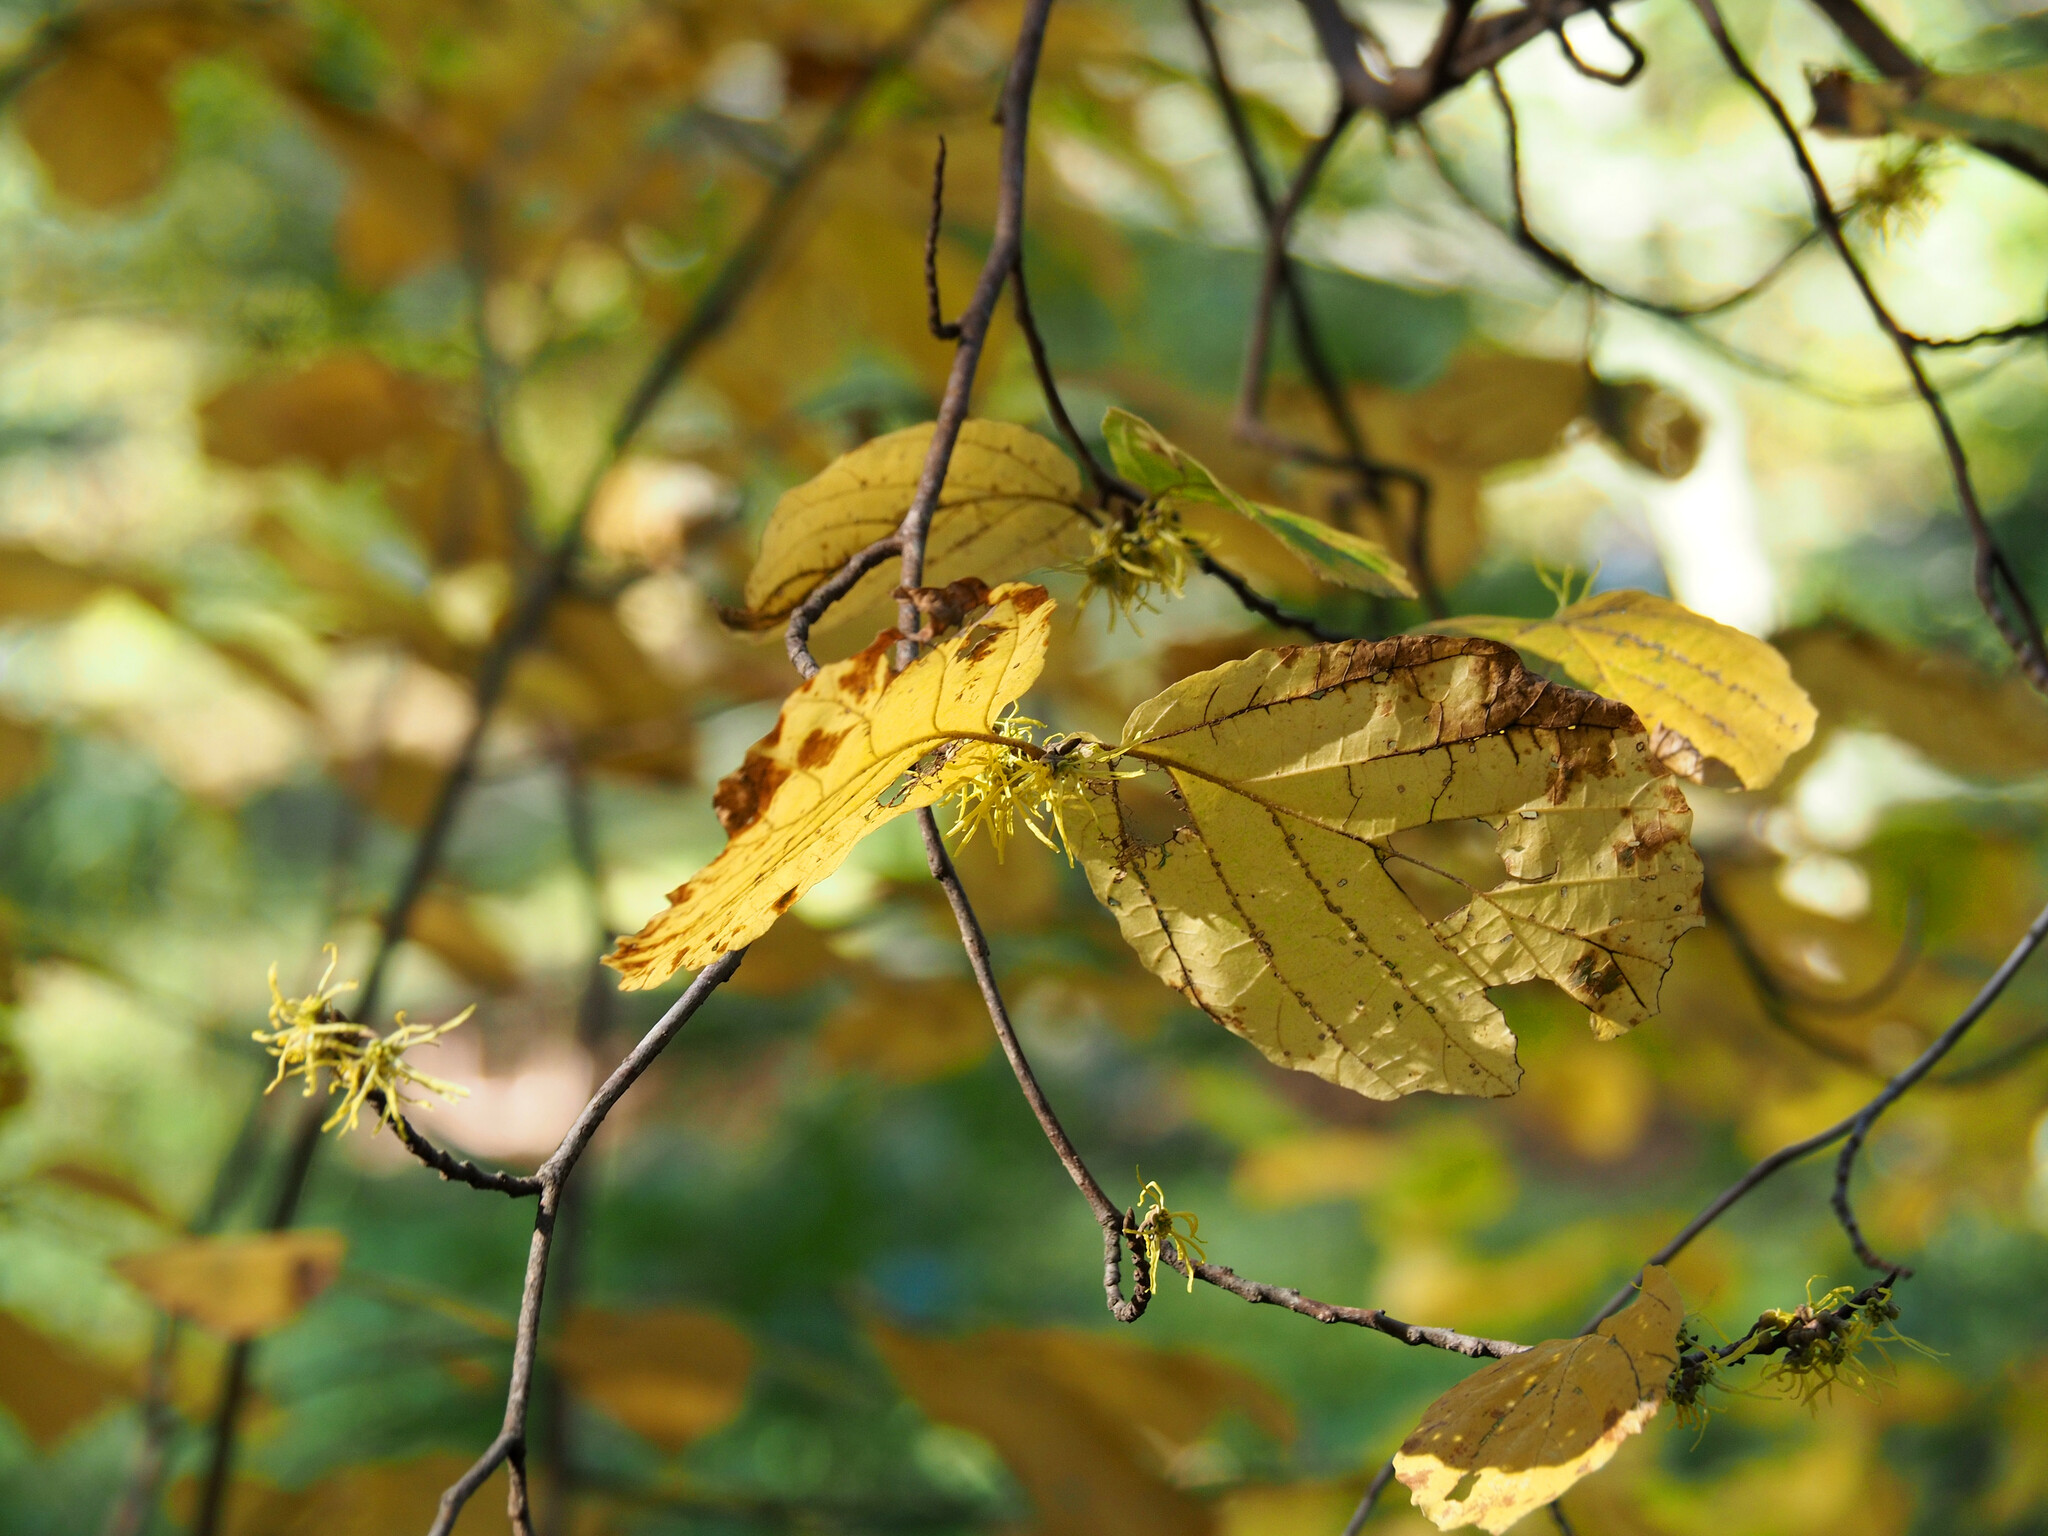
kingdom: Plantae
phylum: Tracheophyta
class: Magnoliopsida
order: Saxifragales
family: Hamamelidaceae
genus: Hamamelis
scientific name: Hamamelis virginiana
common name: Witch-hazel
